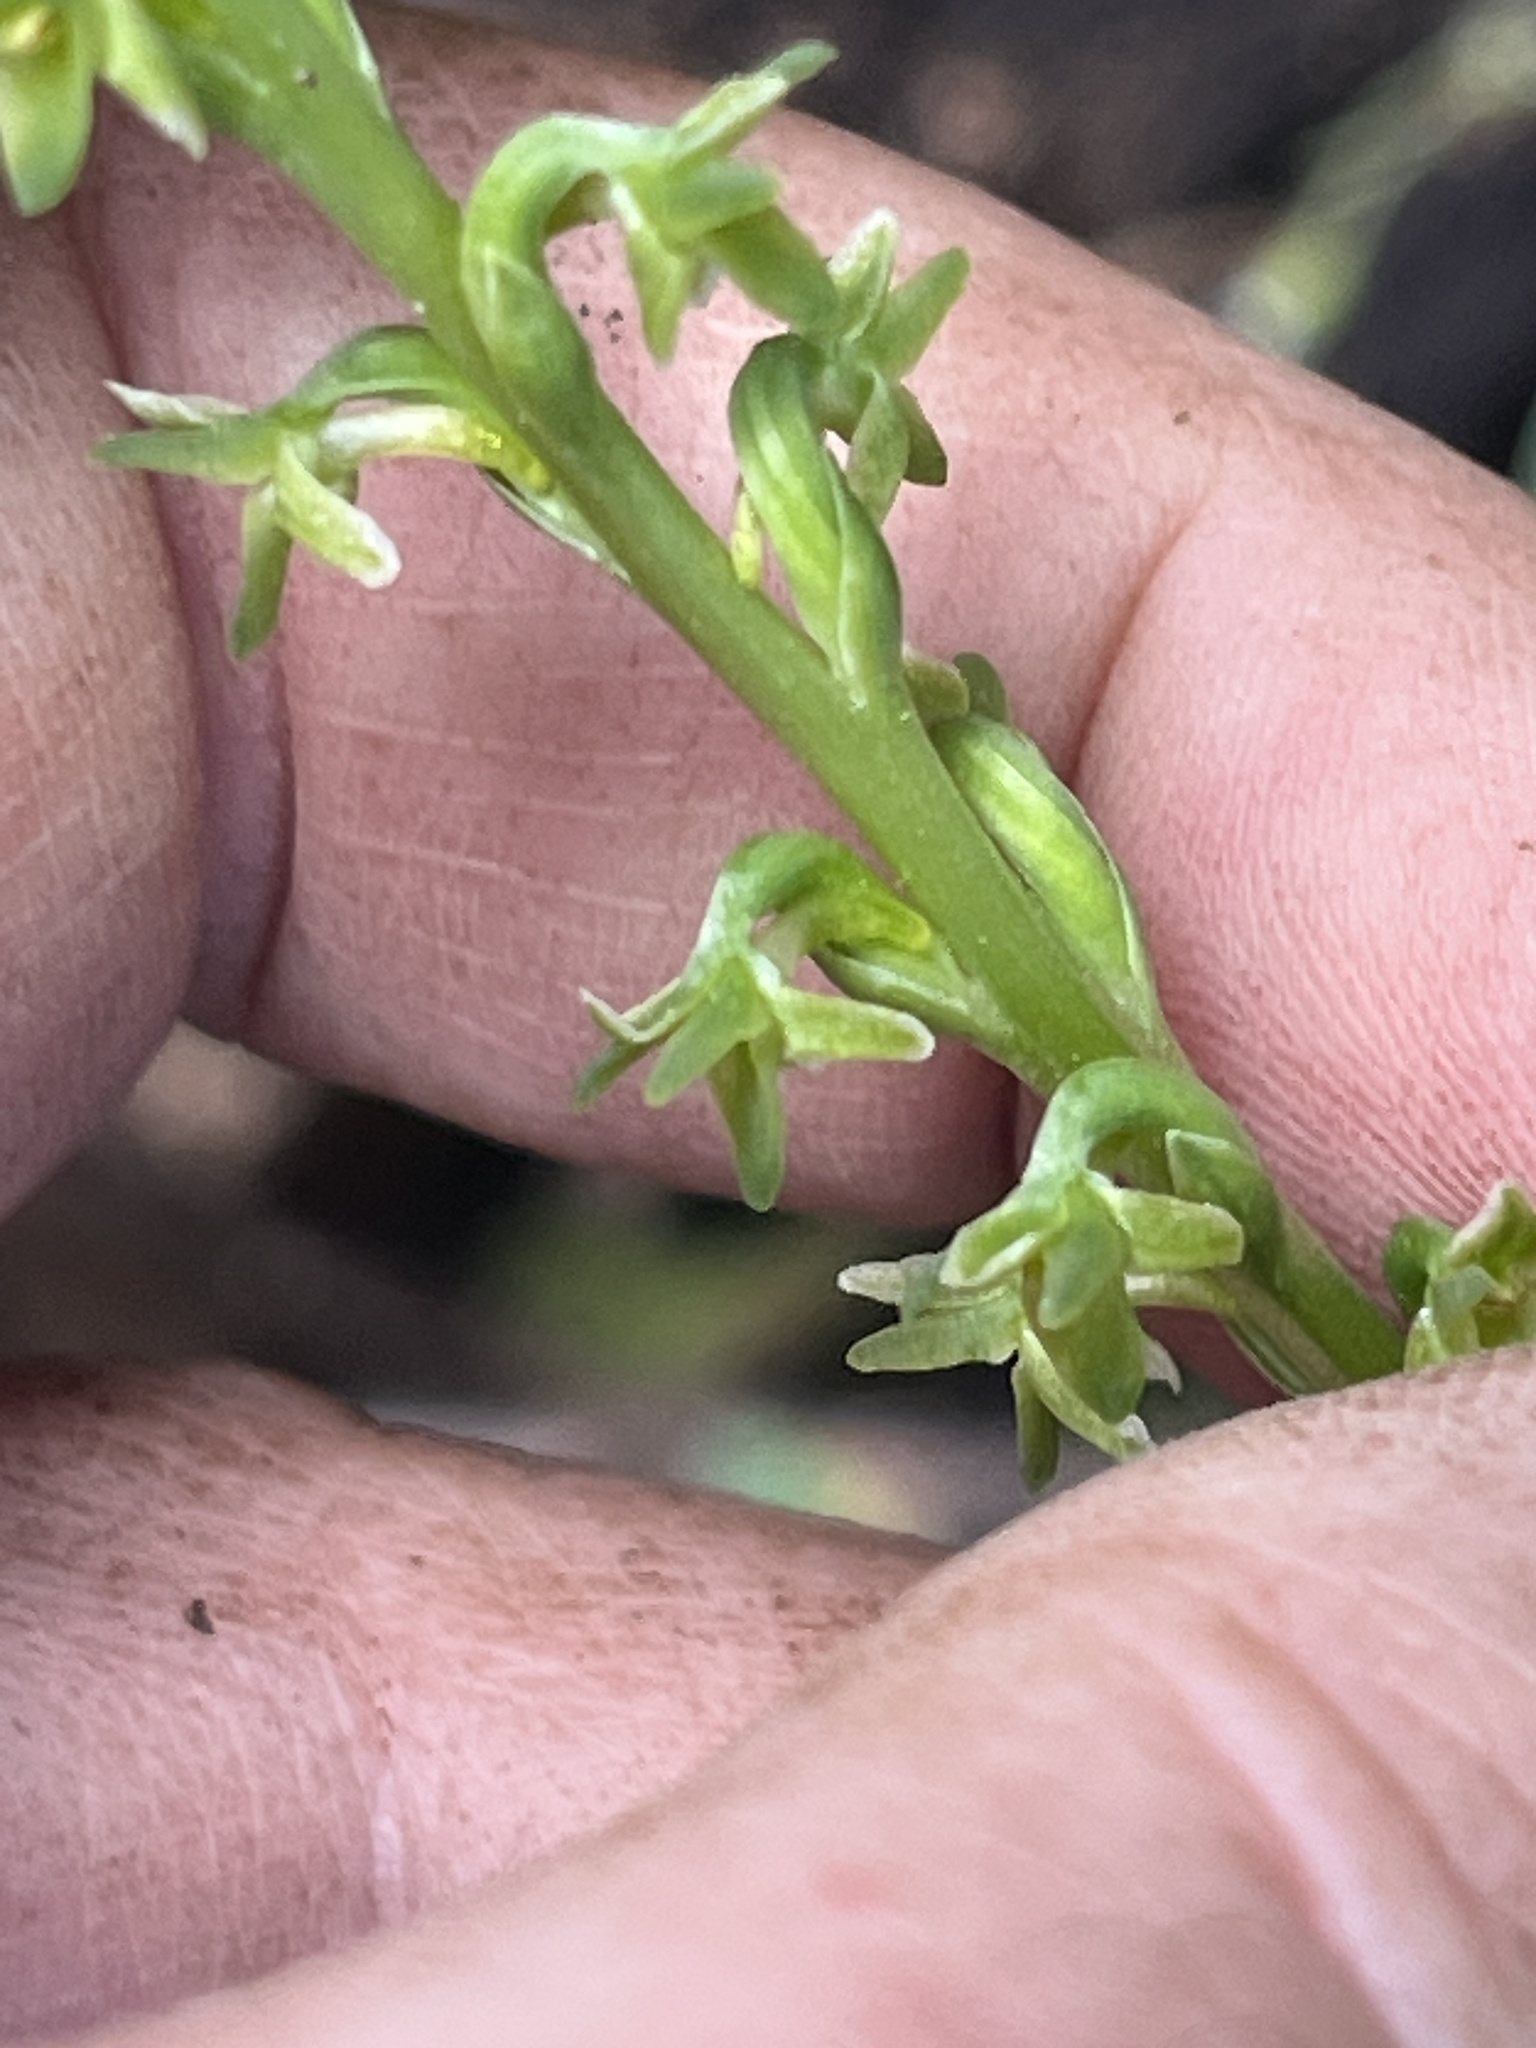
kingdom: Plantae
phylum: Tracheophyta
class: Liliopsida
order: Asparagales
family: Orchidaceae
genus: Platanthera
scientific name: Platanthera unalascensis
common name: Alaska bog orchid
